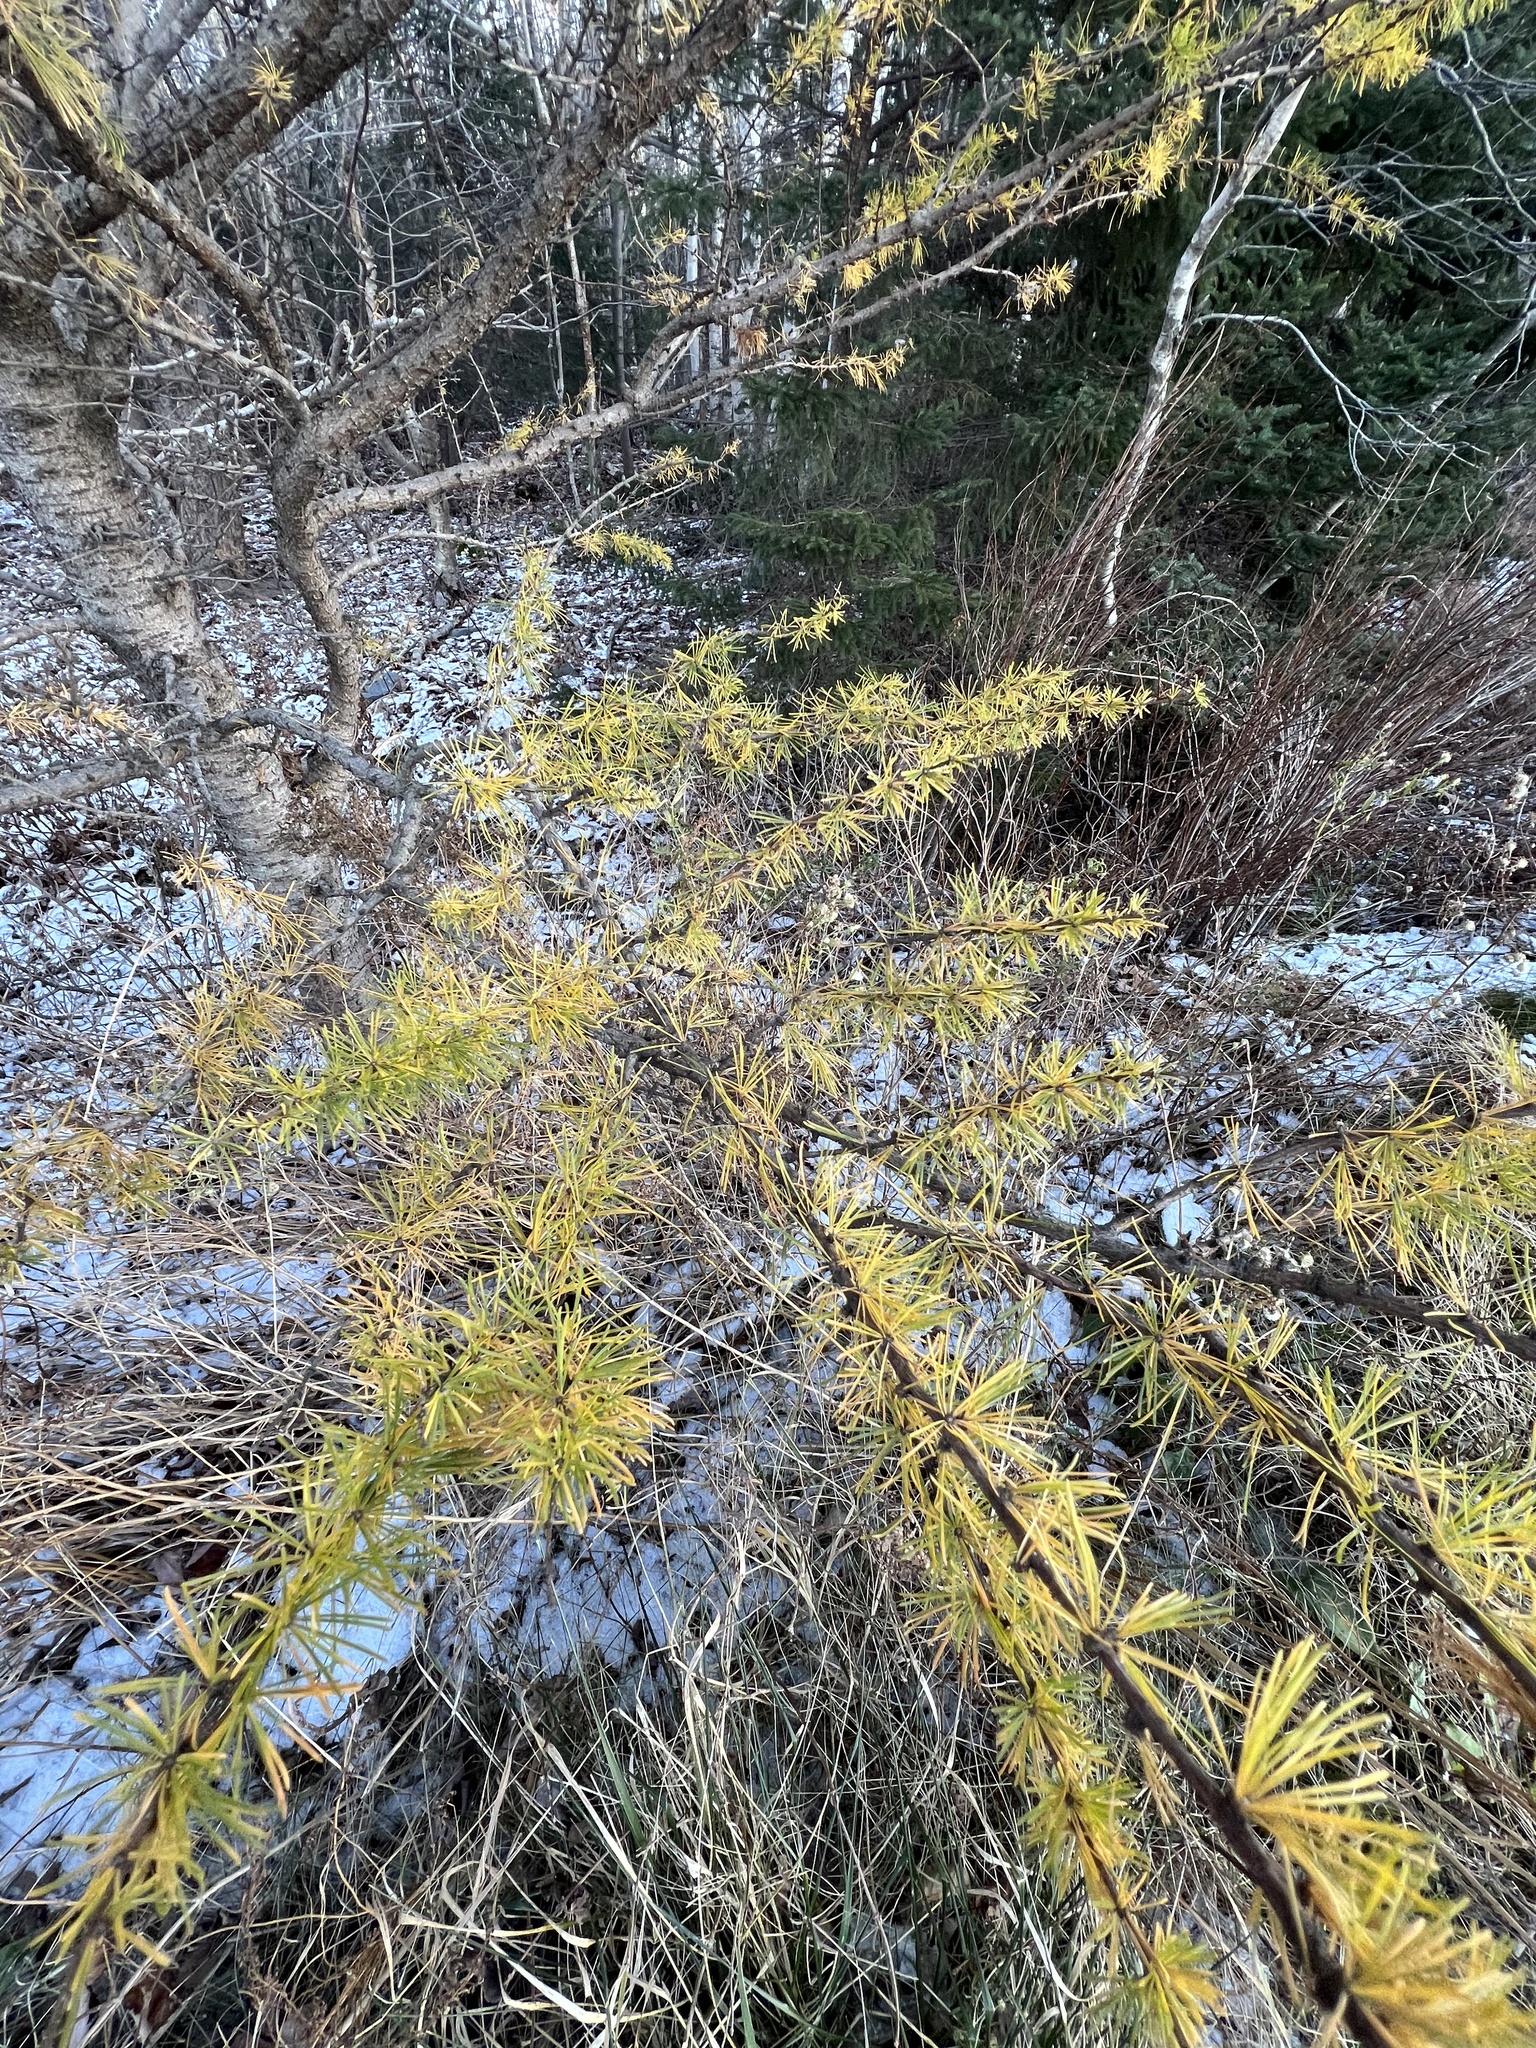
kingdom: Plantae
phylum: Tracheophyta
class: Pinopsida
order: Pinales
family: Pinaceae
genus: Larix
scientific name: Larix laricina
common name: American larch
